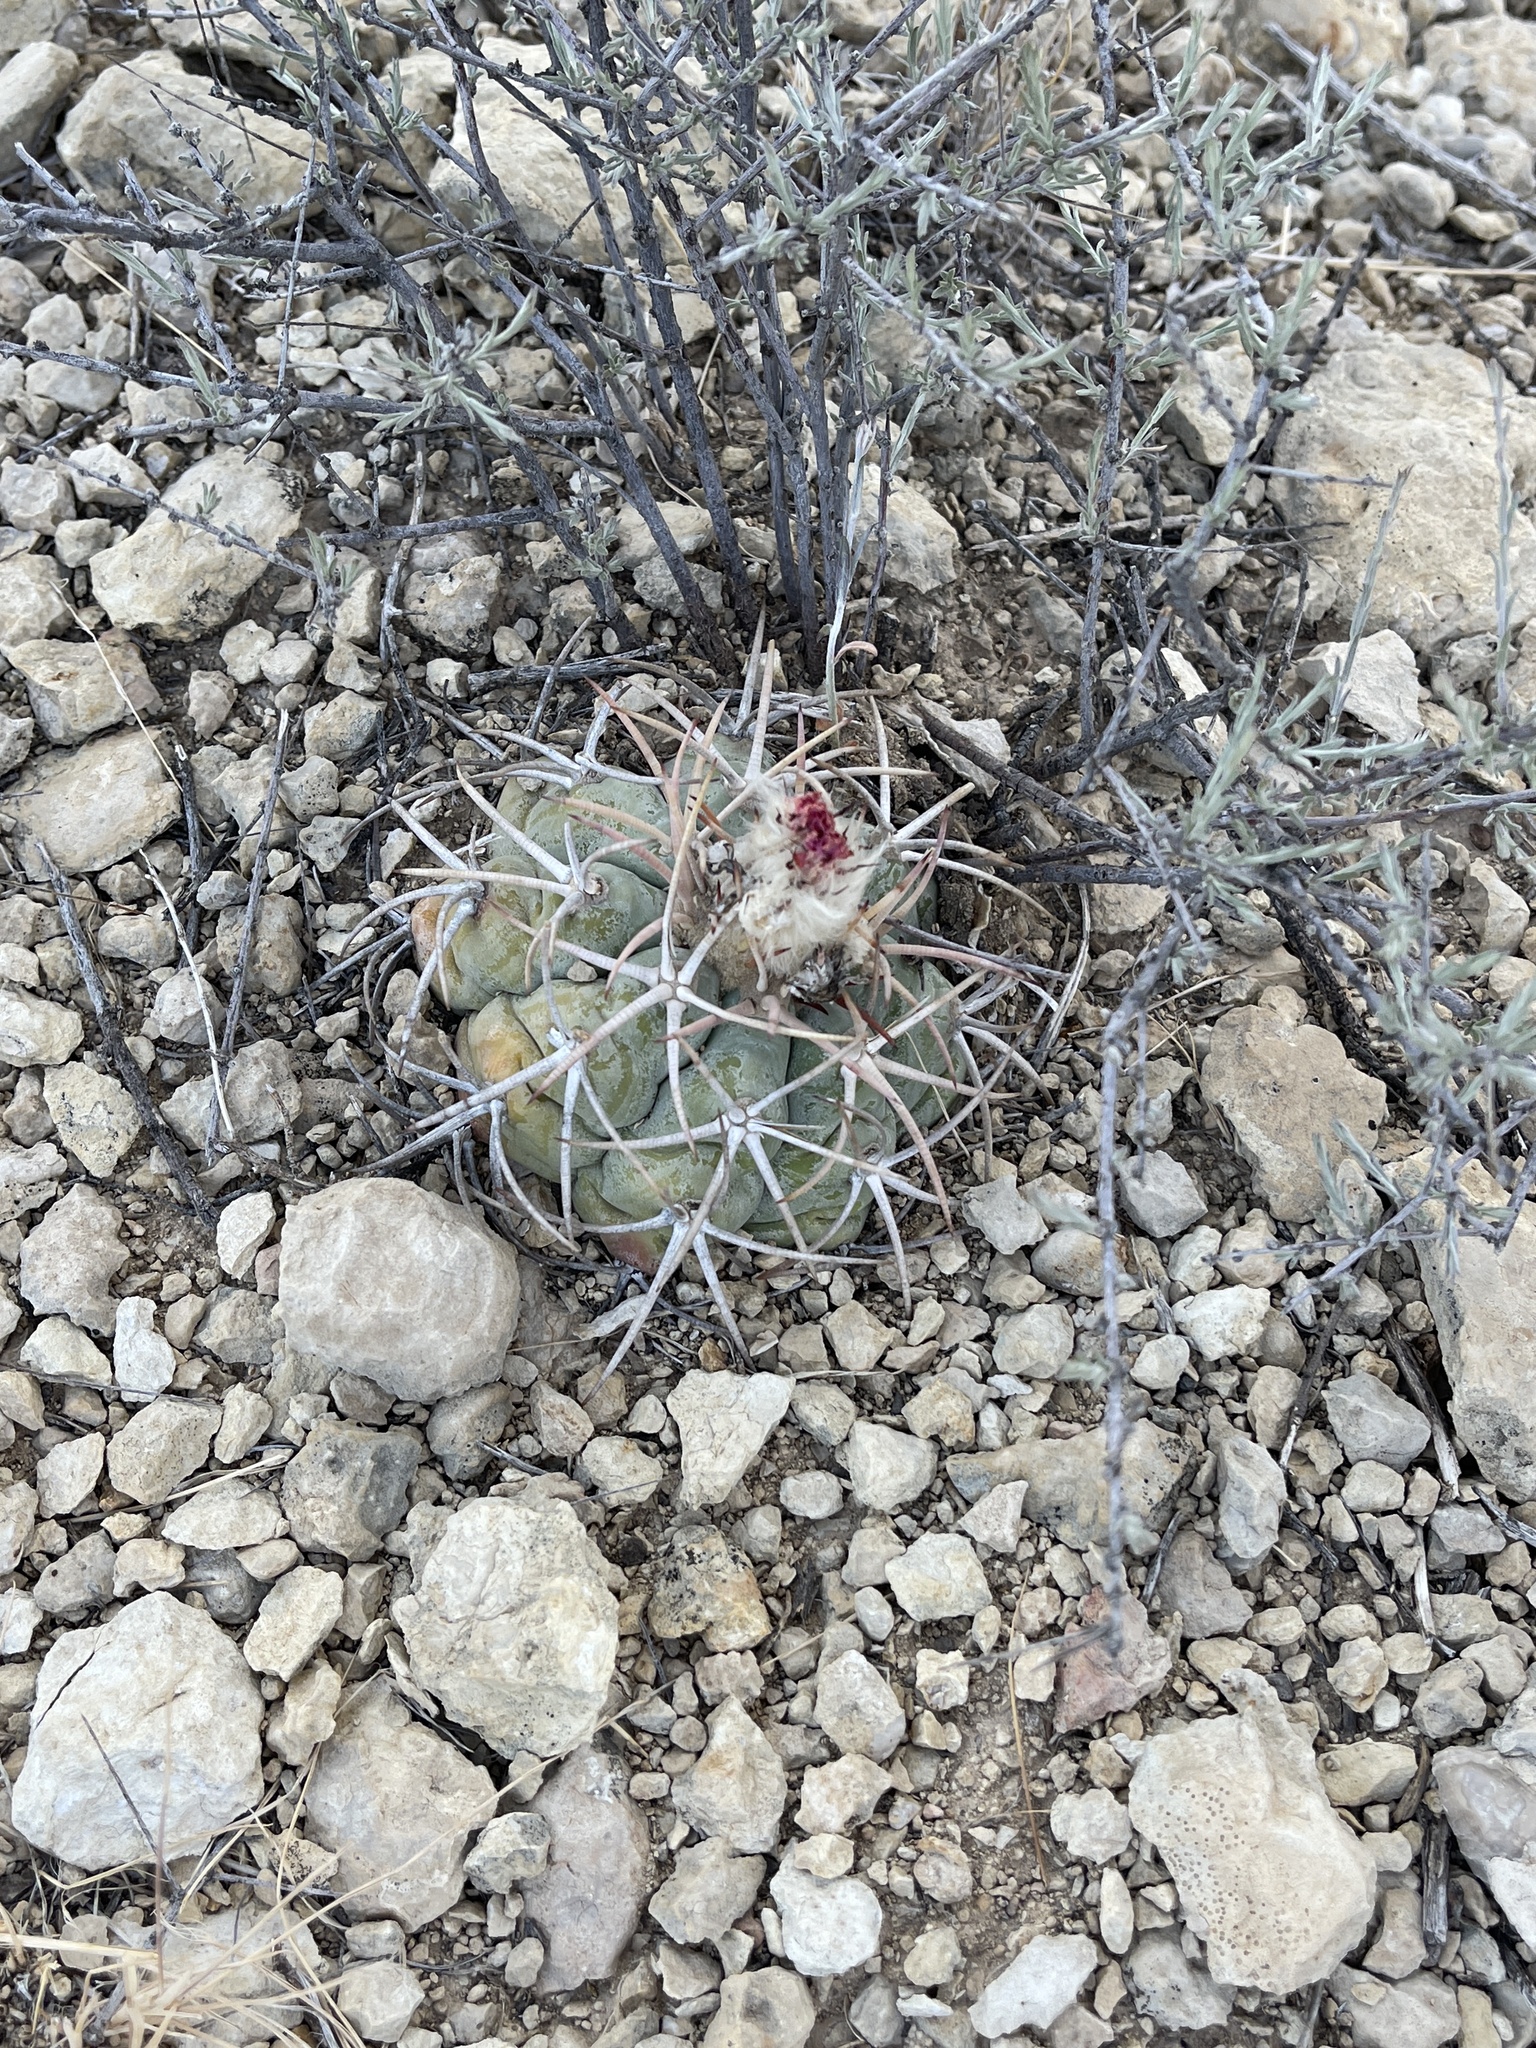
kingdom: Plantae
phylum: Tracheophyta
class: Magnoliopsida
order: Caryophyllales
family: Cactaceae
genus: Echinocactus
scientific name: Echinocactus horizonthalonius
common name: Devilshead
